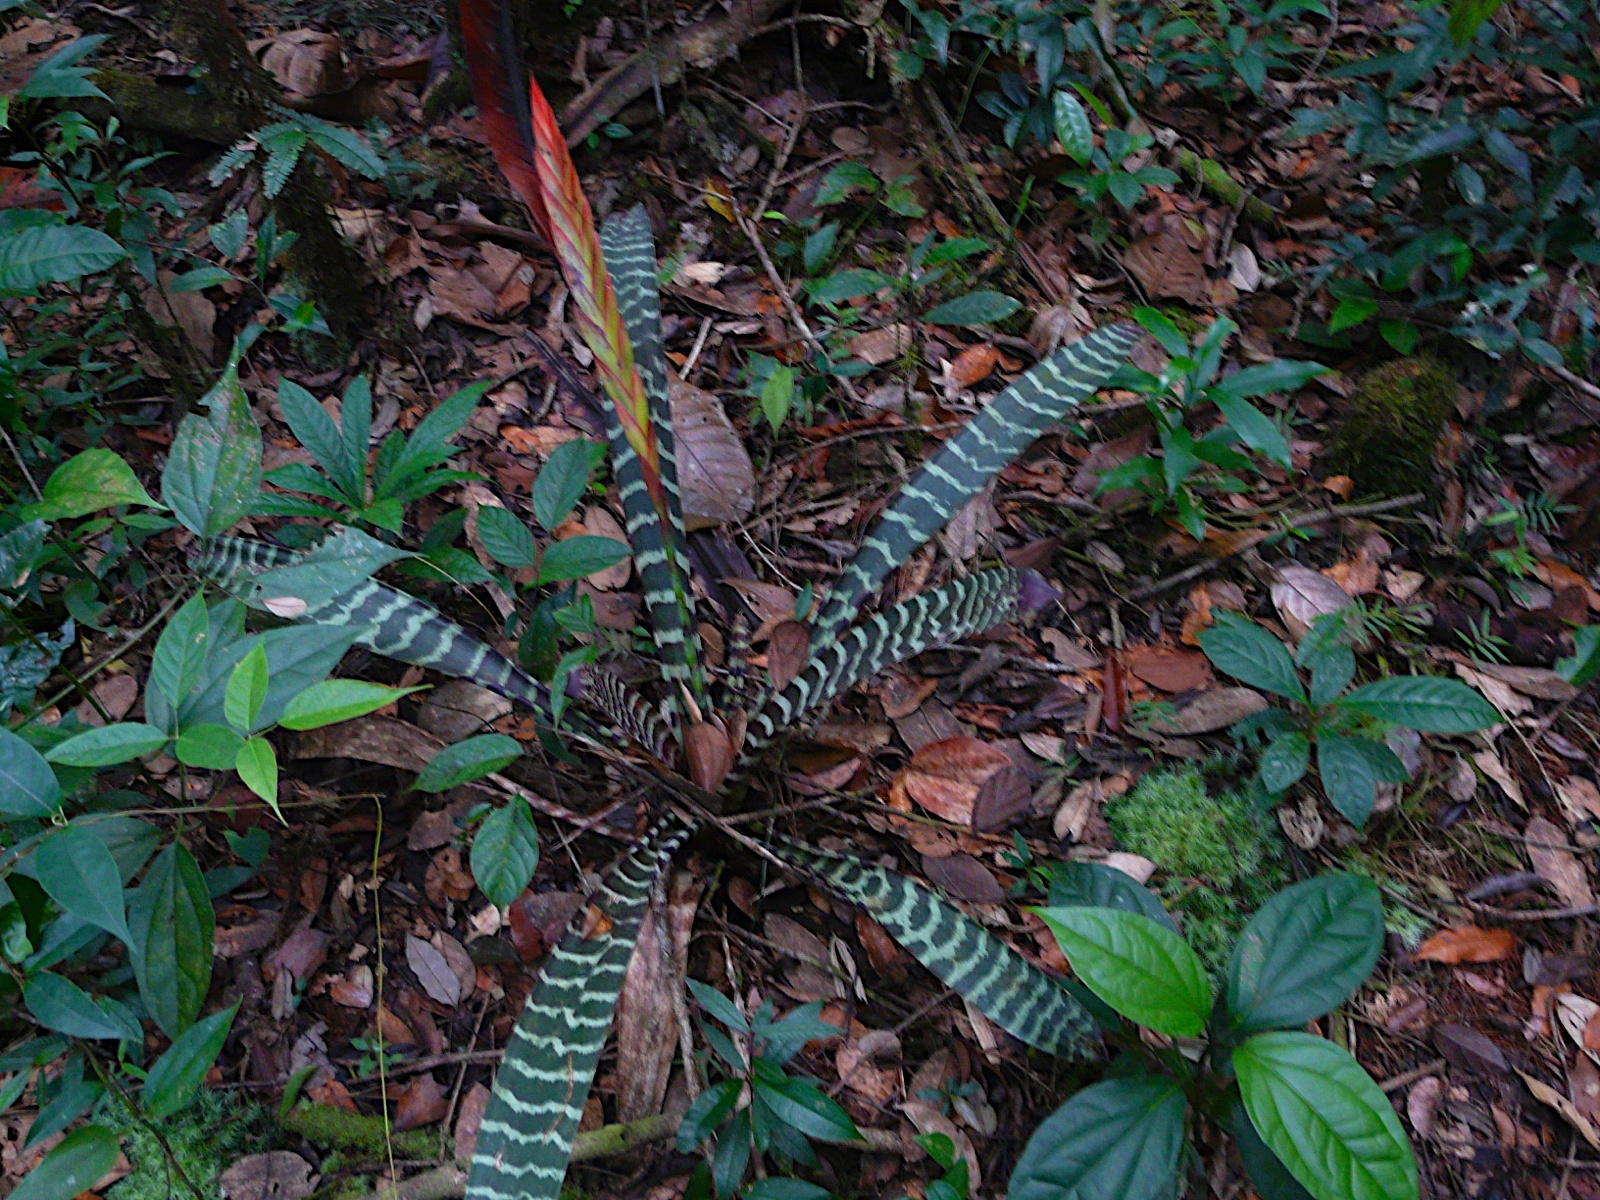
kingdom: Plantae
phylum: Tracheophyta
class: Liliopsida
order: Poales
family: Bromeliaceae
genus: Lutheria
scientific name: Lutheria splendens
